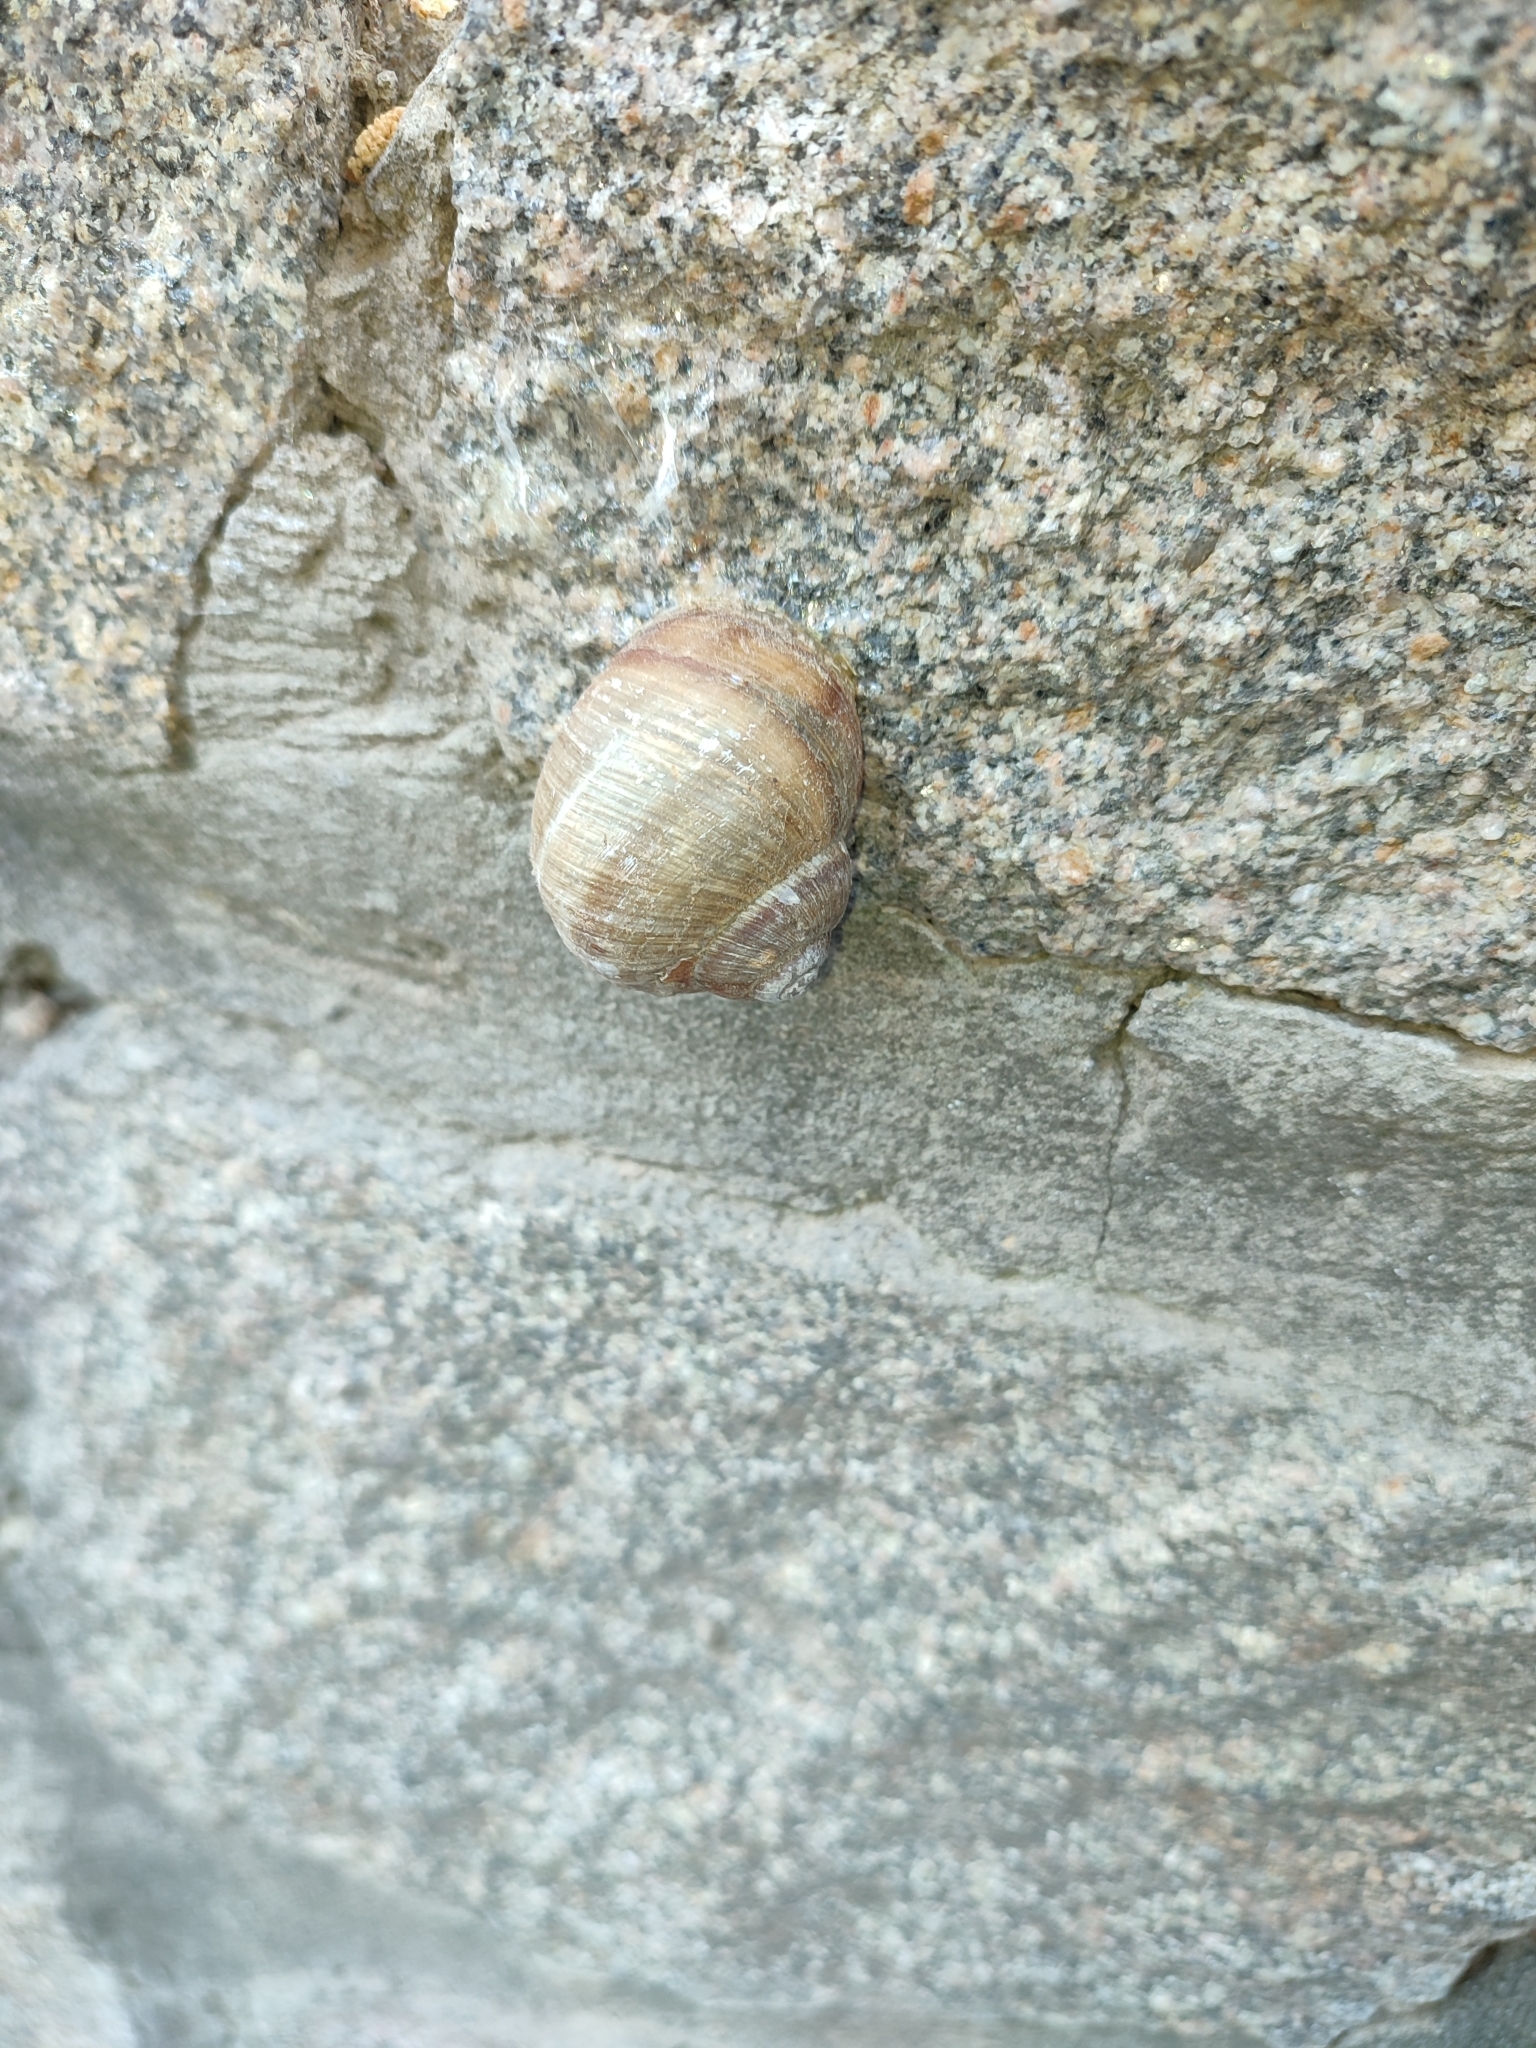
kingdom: Animalia
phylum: Mollusca
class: Gastropoda
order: Stylommatophora
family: Helicidae
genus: Helix
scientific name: Helix pomatia
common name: Roman snail
